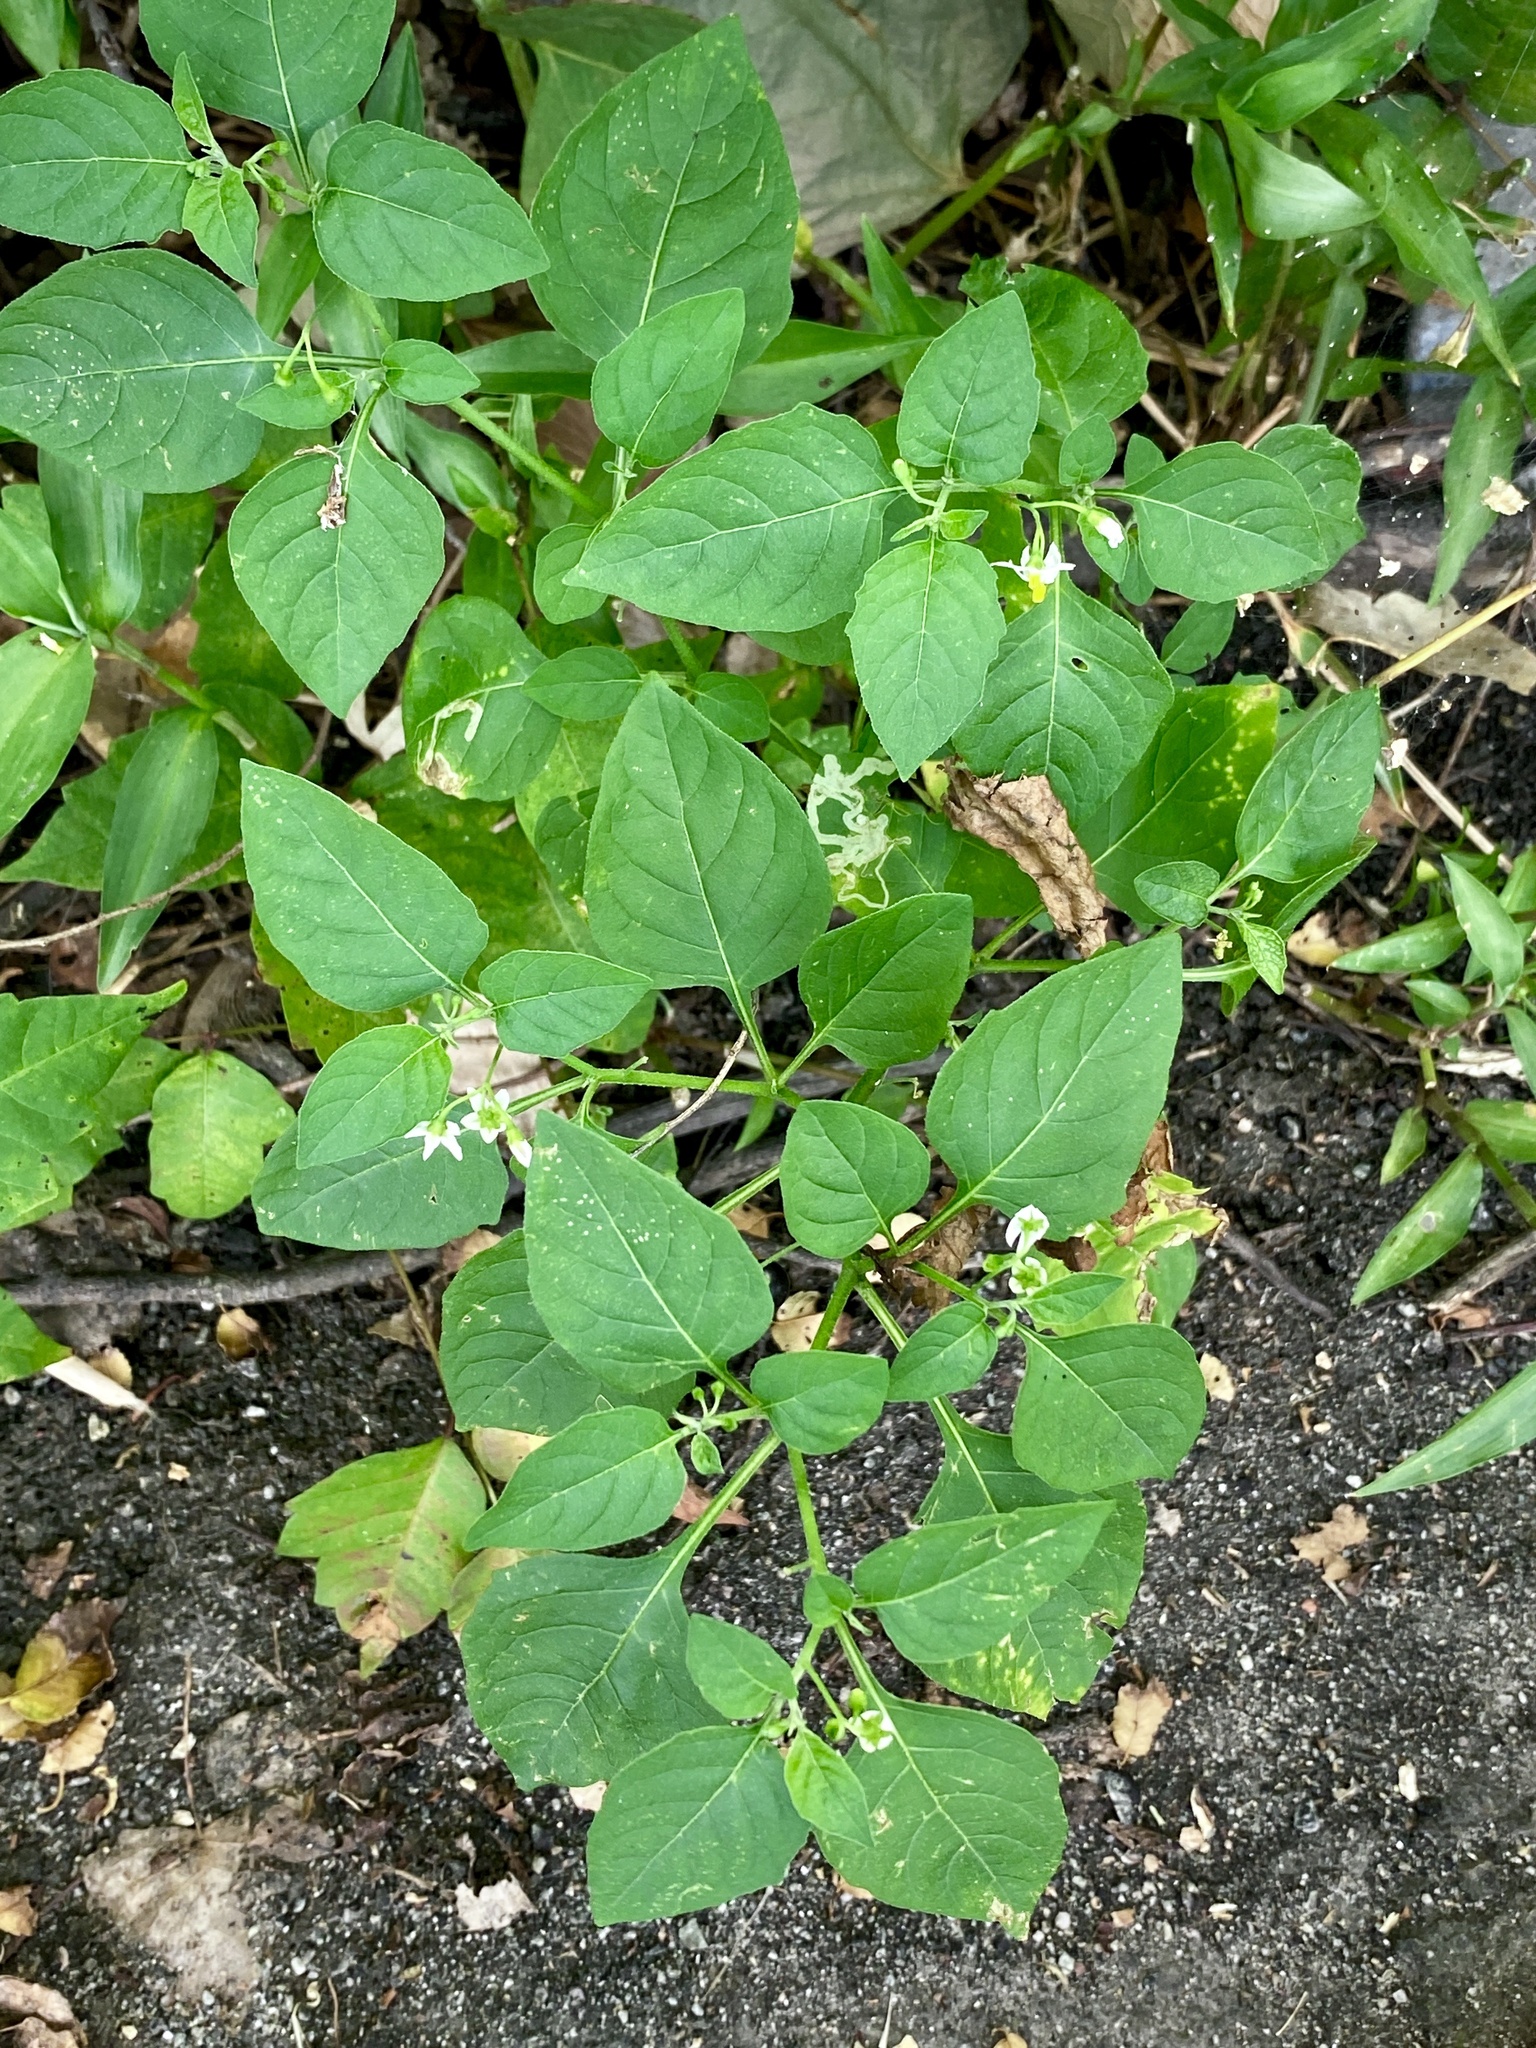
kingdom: Plantae
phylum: Tracheophyta
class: Magnoliopsida
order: Solanales
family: Solanaceae
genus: Solanum
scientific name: Solanum emulans
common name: Eastern black nightshade
